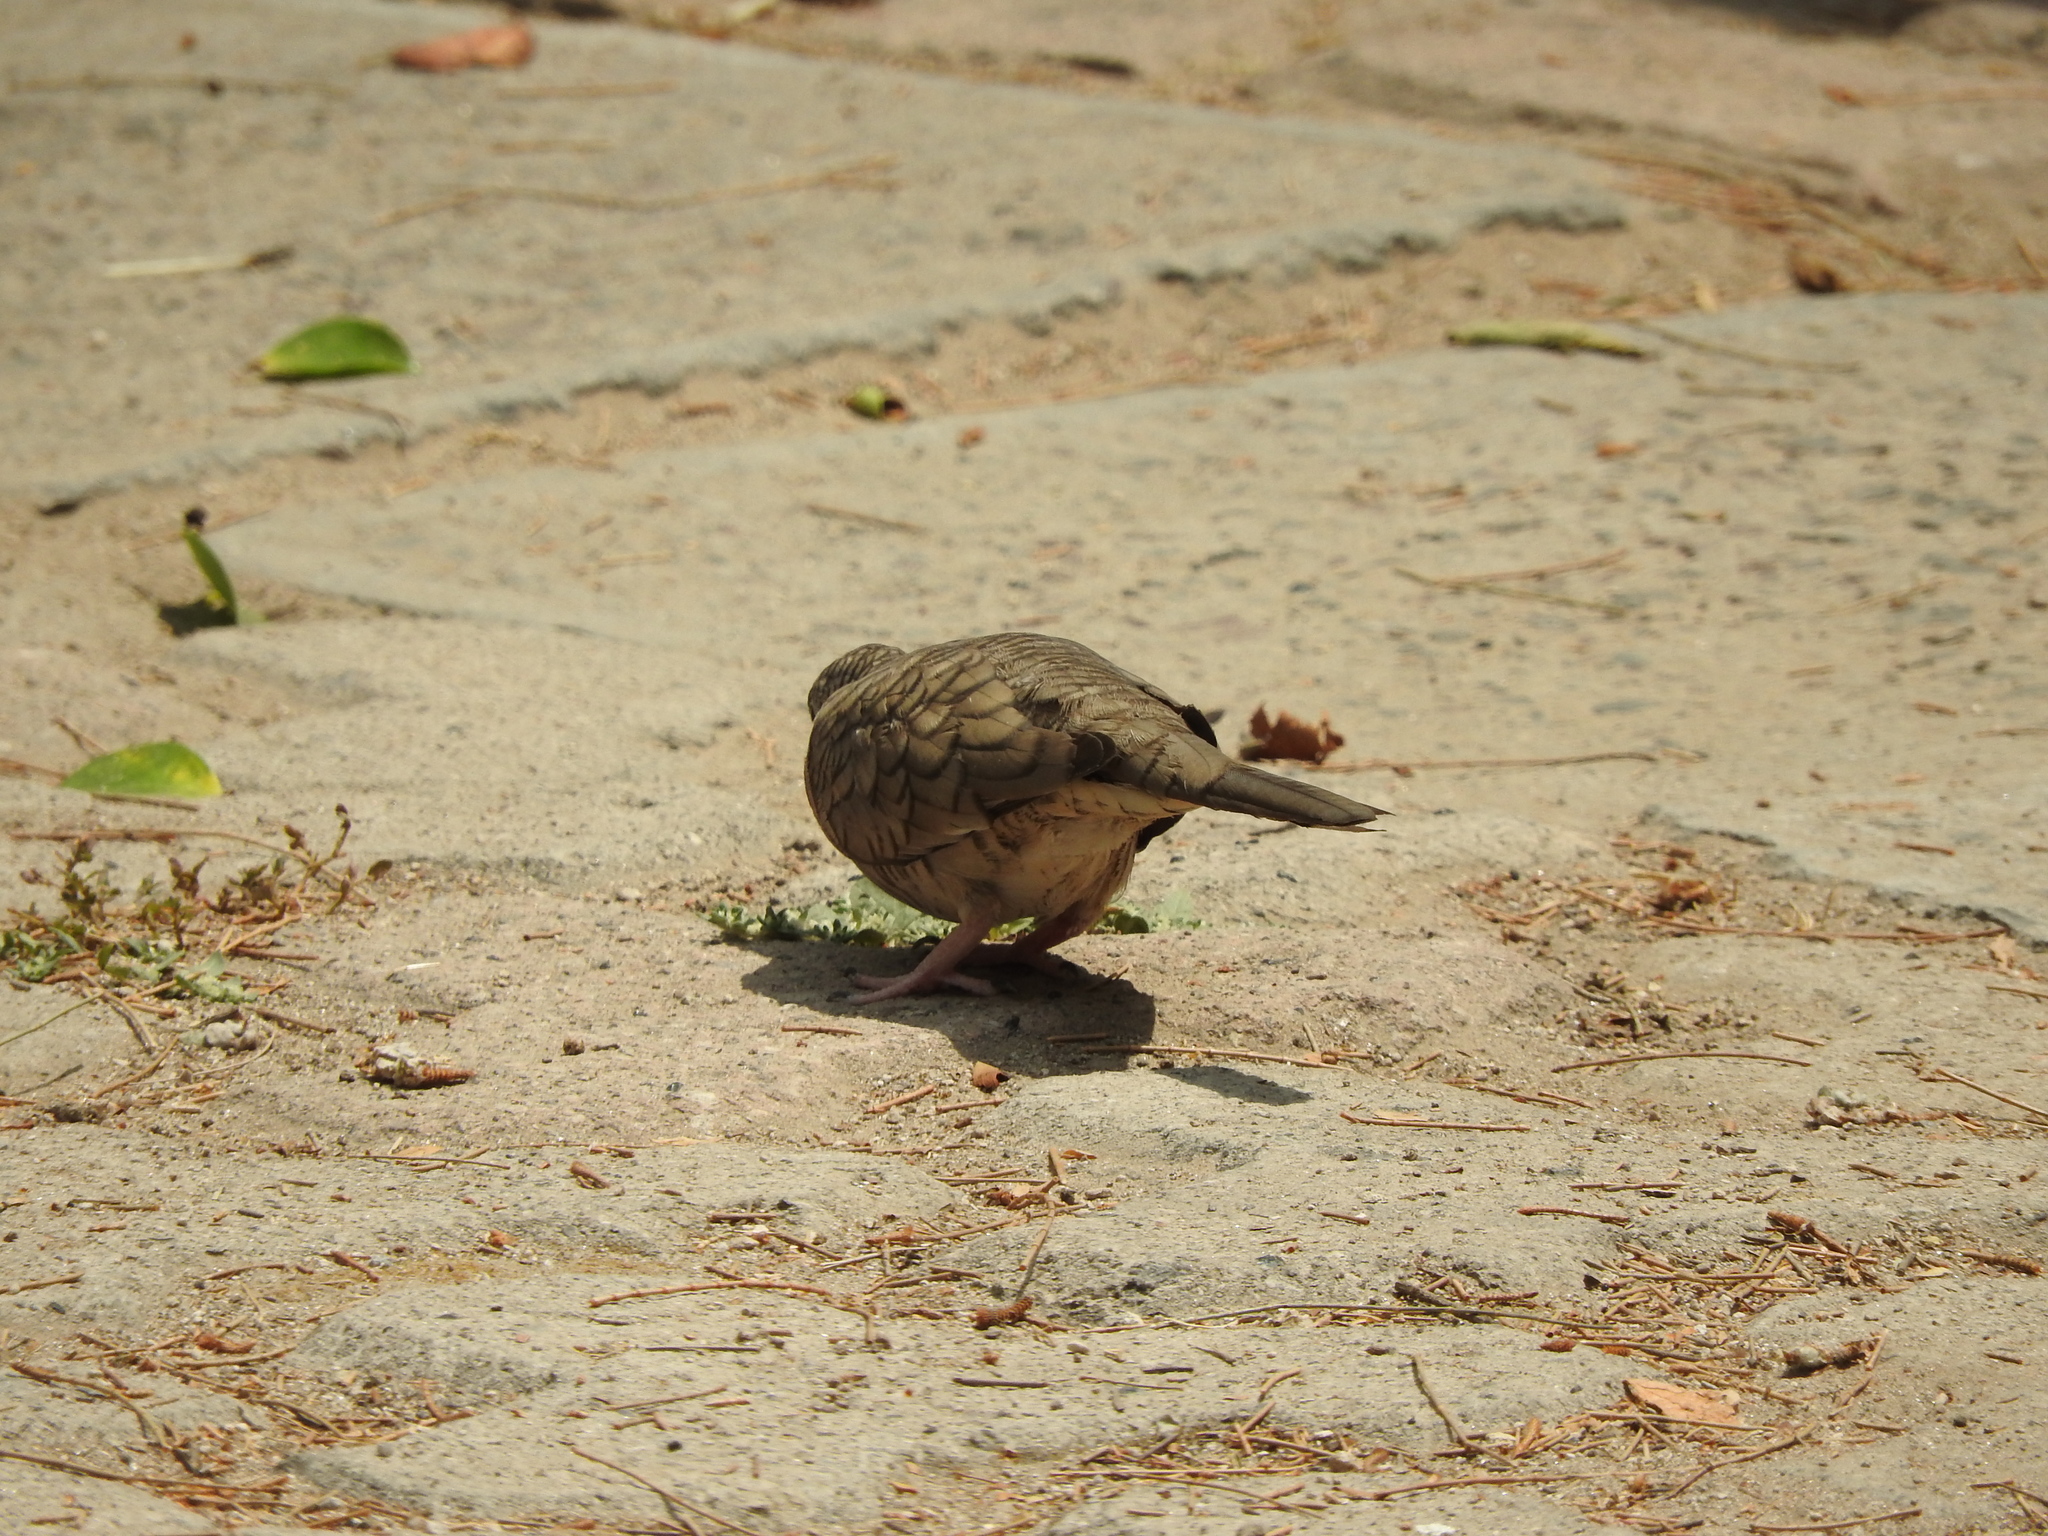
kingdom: Animalia
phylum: Chordata
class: Aves
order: Columbiformes
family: Columbidae
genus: Columbina
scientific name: Columbina inca
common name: Inca dove
